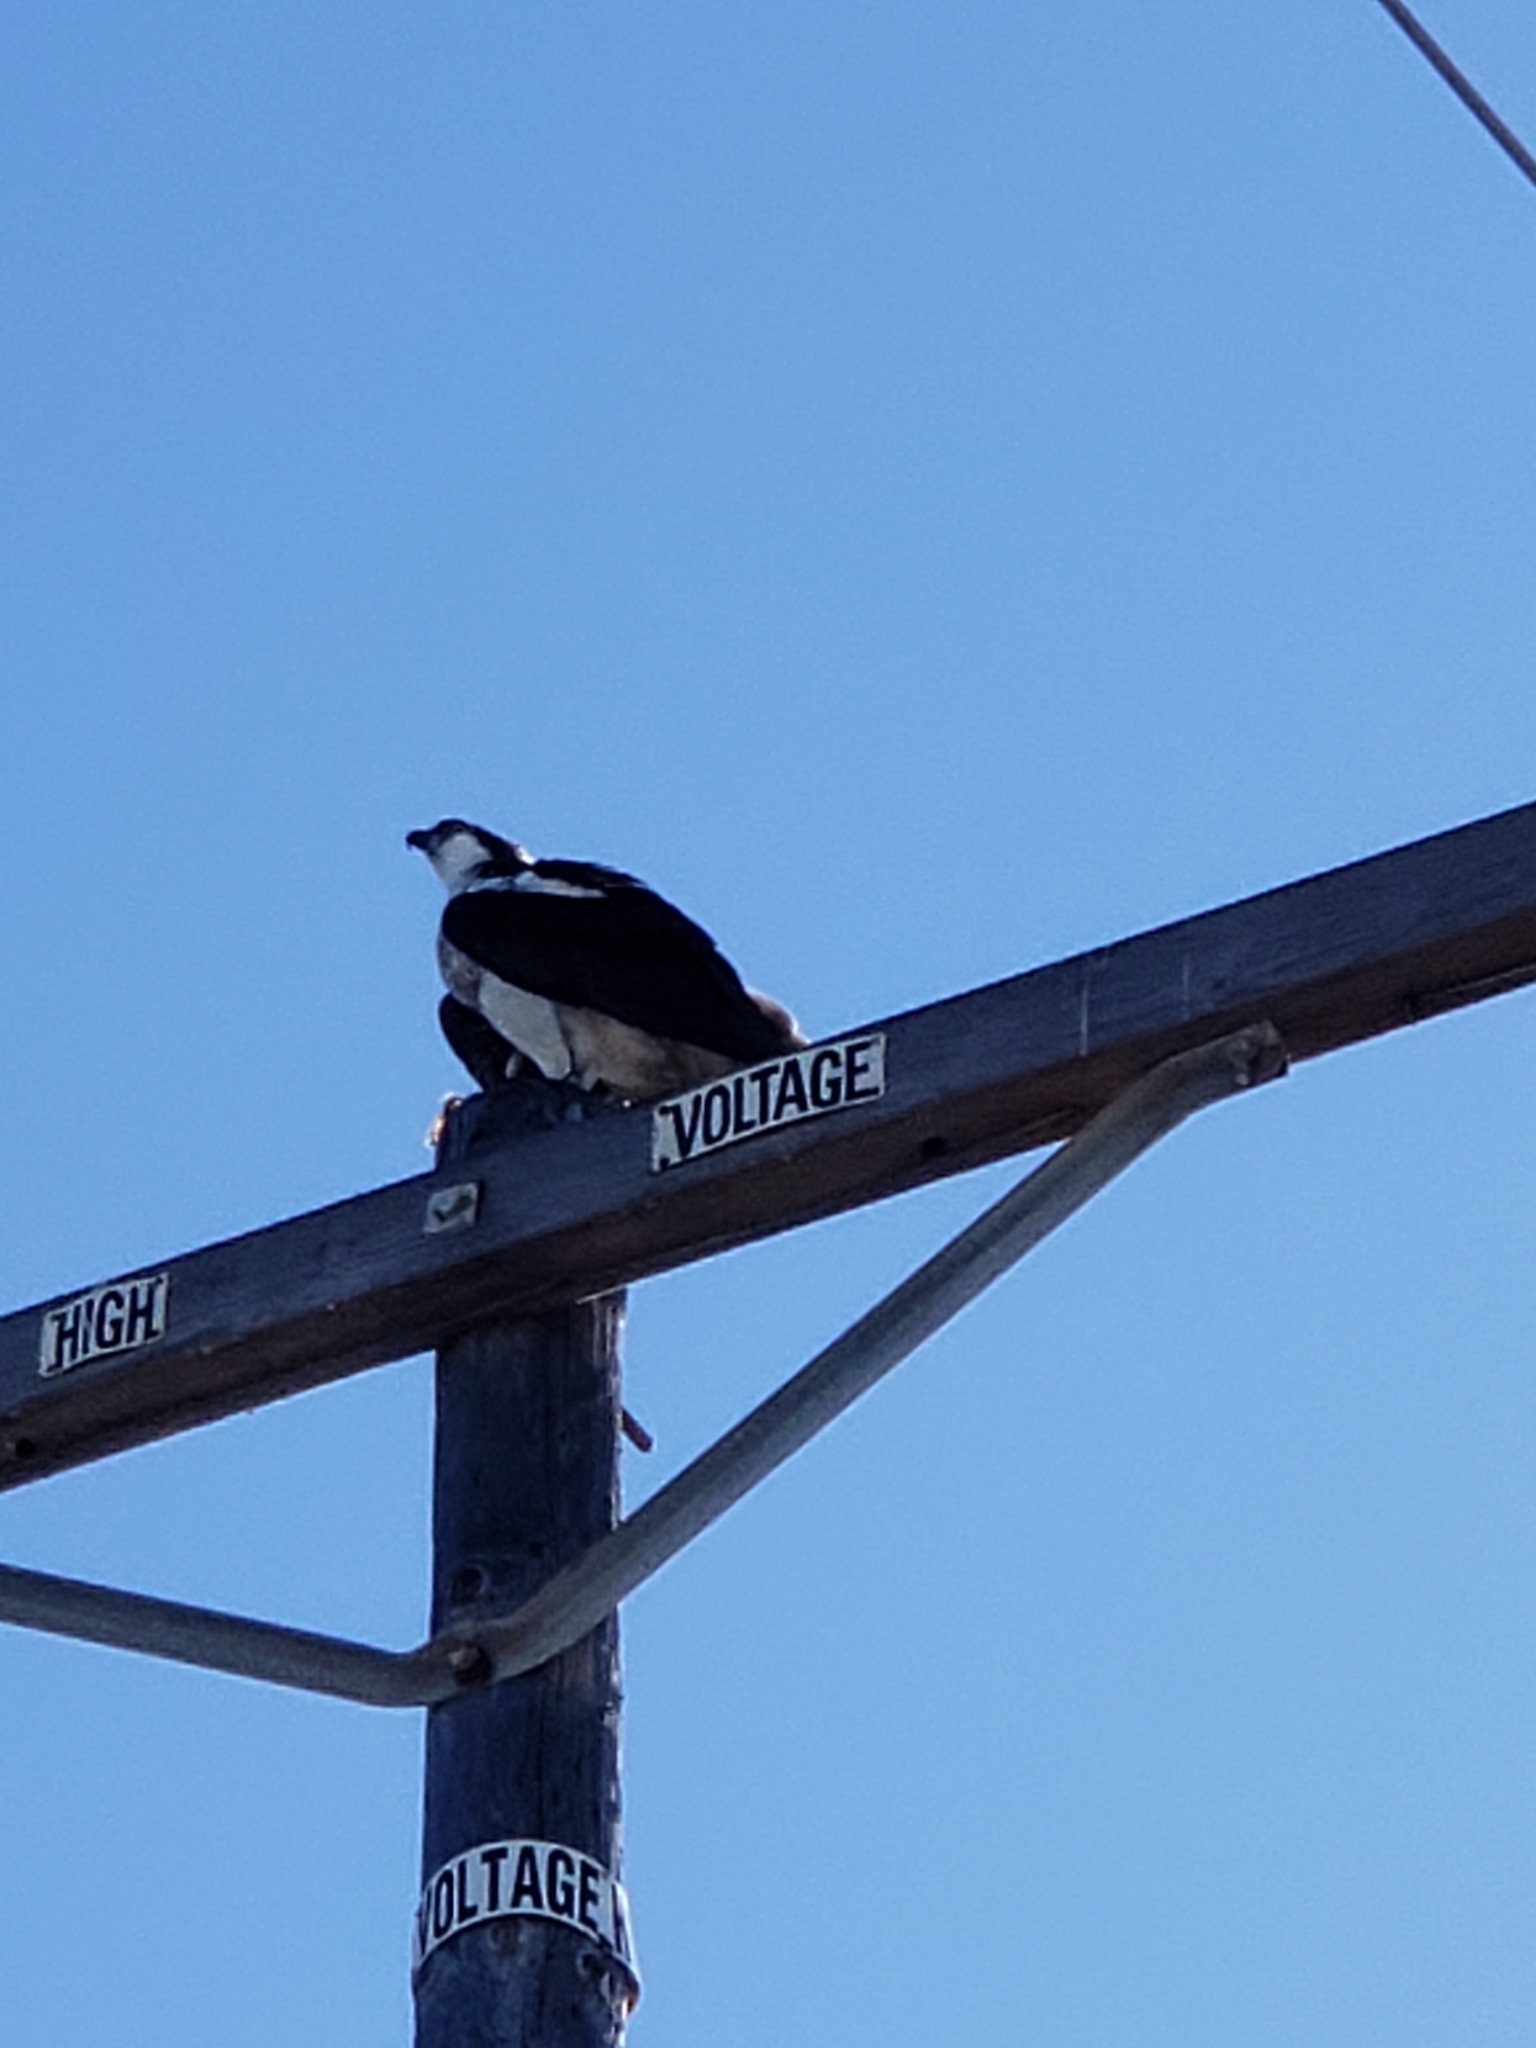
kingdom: Animalia
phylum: Chordata
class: Aves
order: Accipitriformes
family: Pandionidae
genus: Pandion
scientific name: Pandion haliaetus
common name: Osprey
